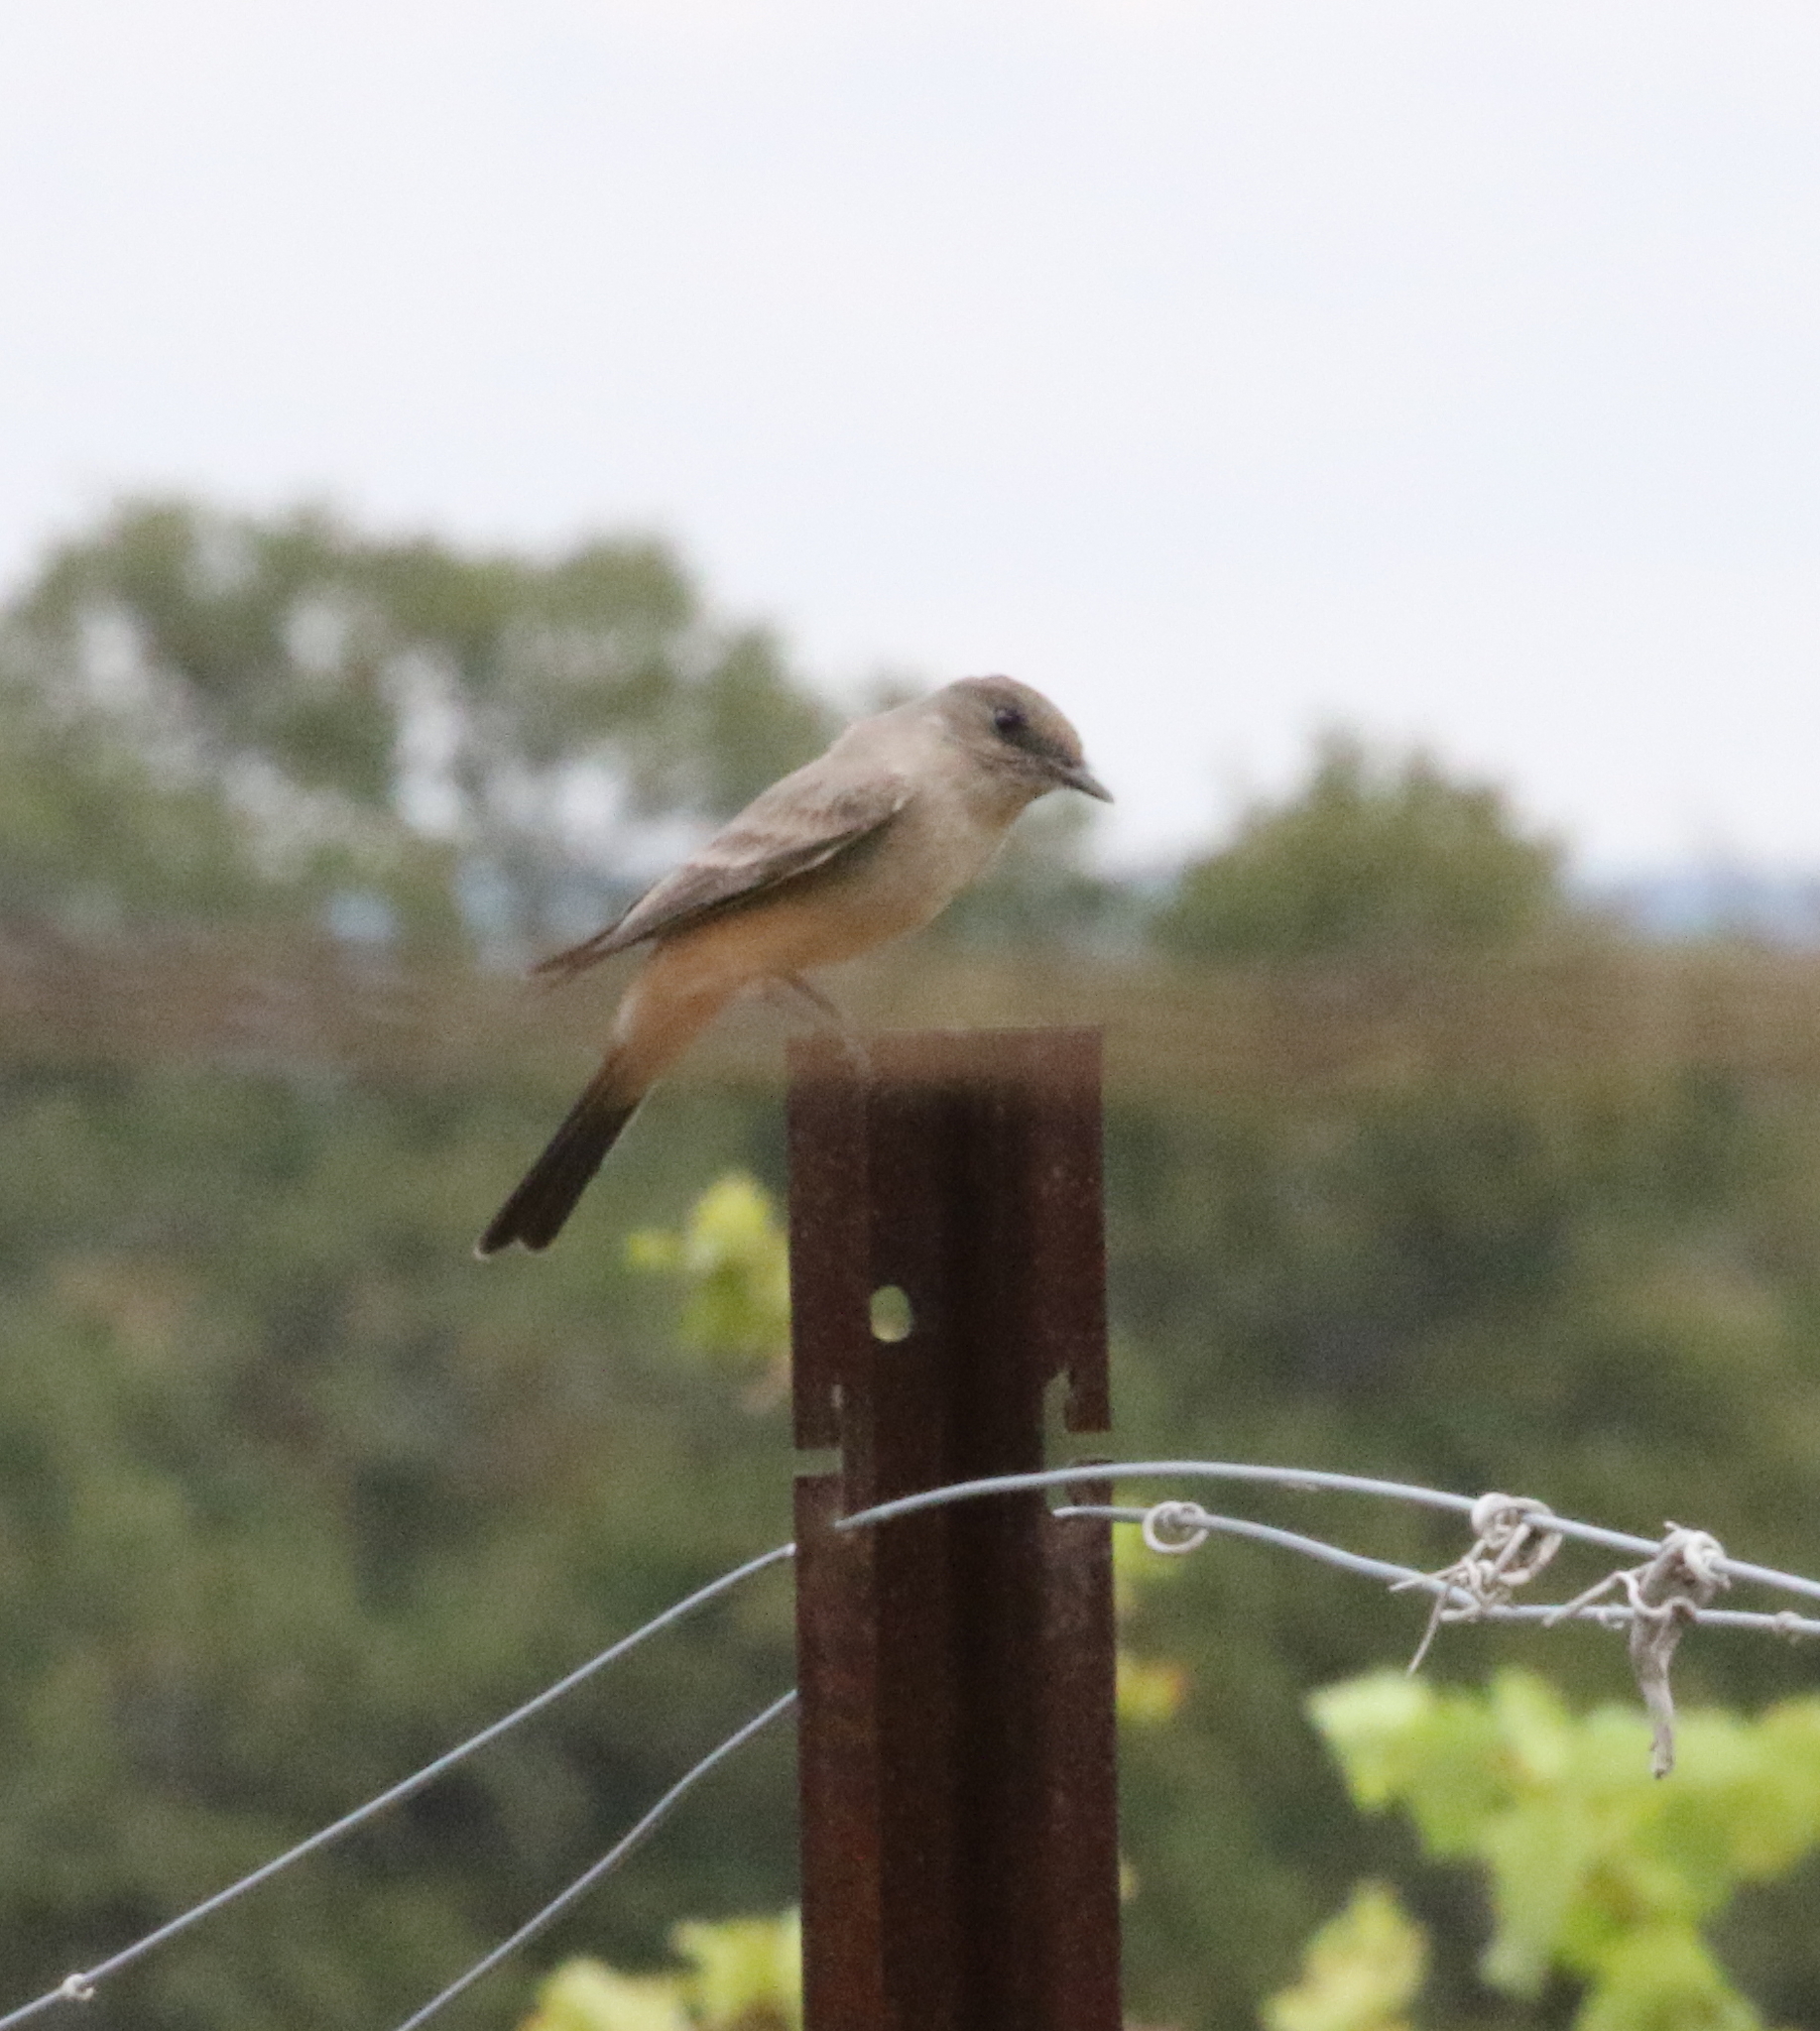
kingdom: Animalia
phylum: Chordata
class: Aves
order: Passeriformes
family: Tyrannidae
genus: Sayornis
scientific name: Sayornis saya
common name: Say's phoebe
